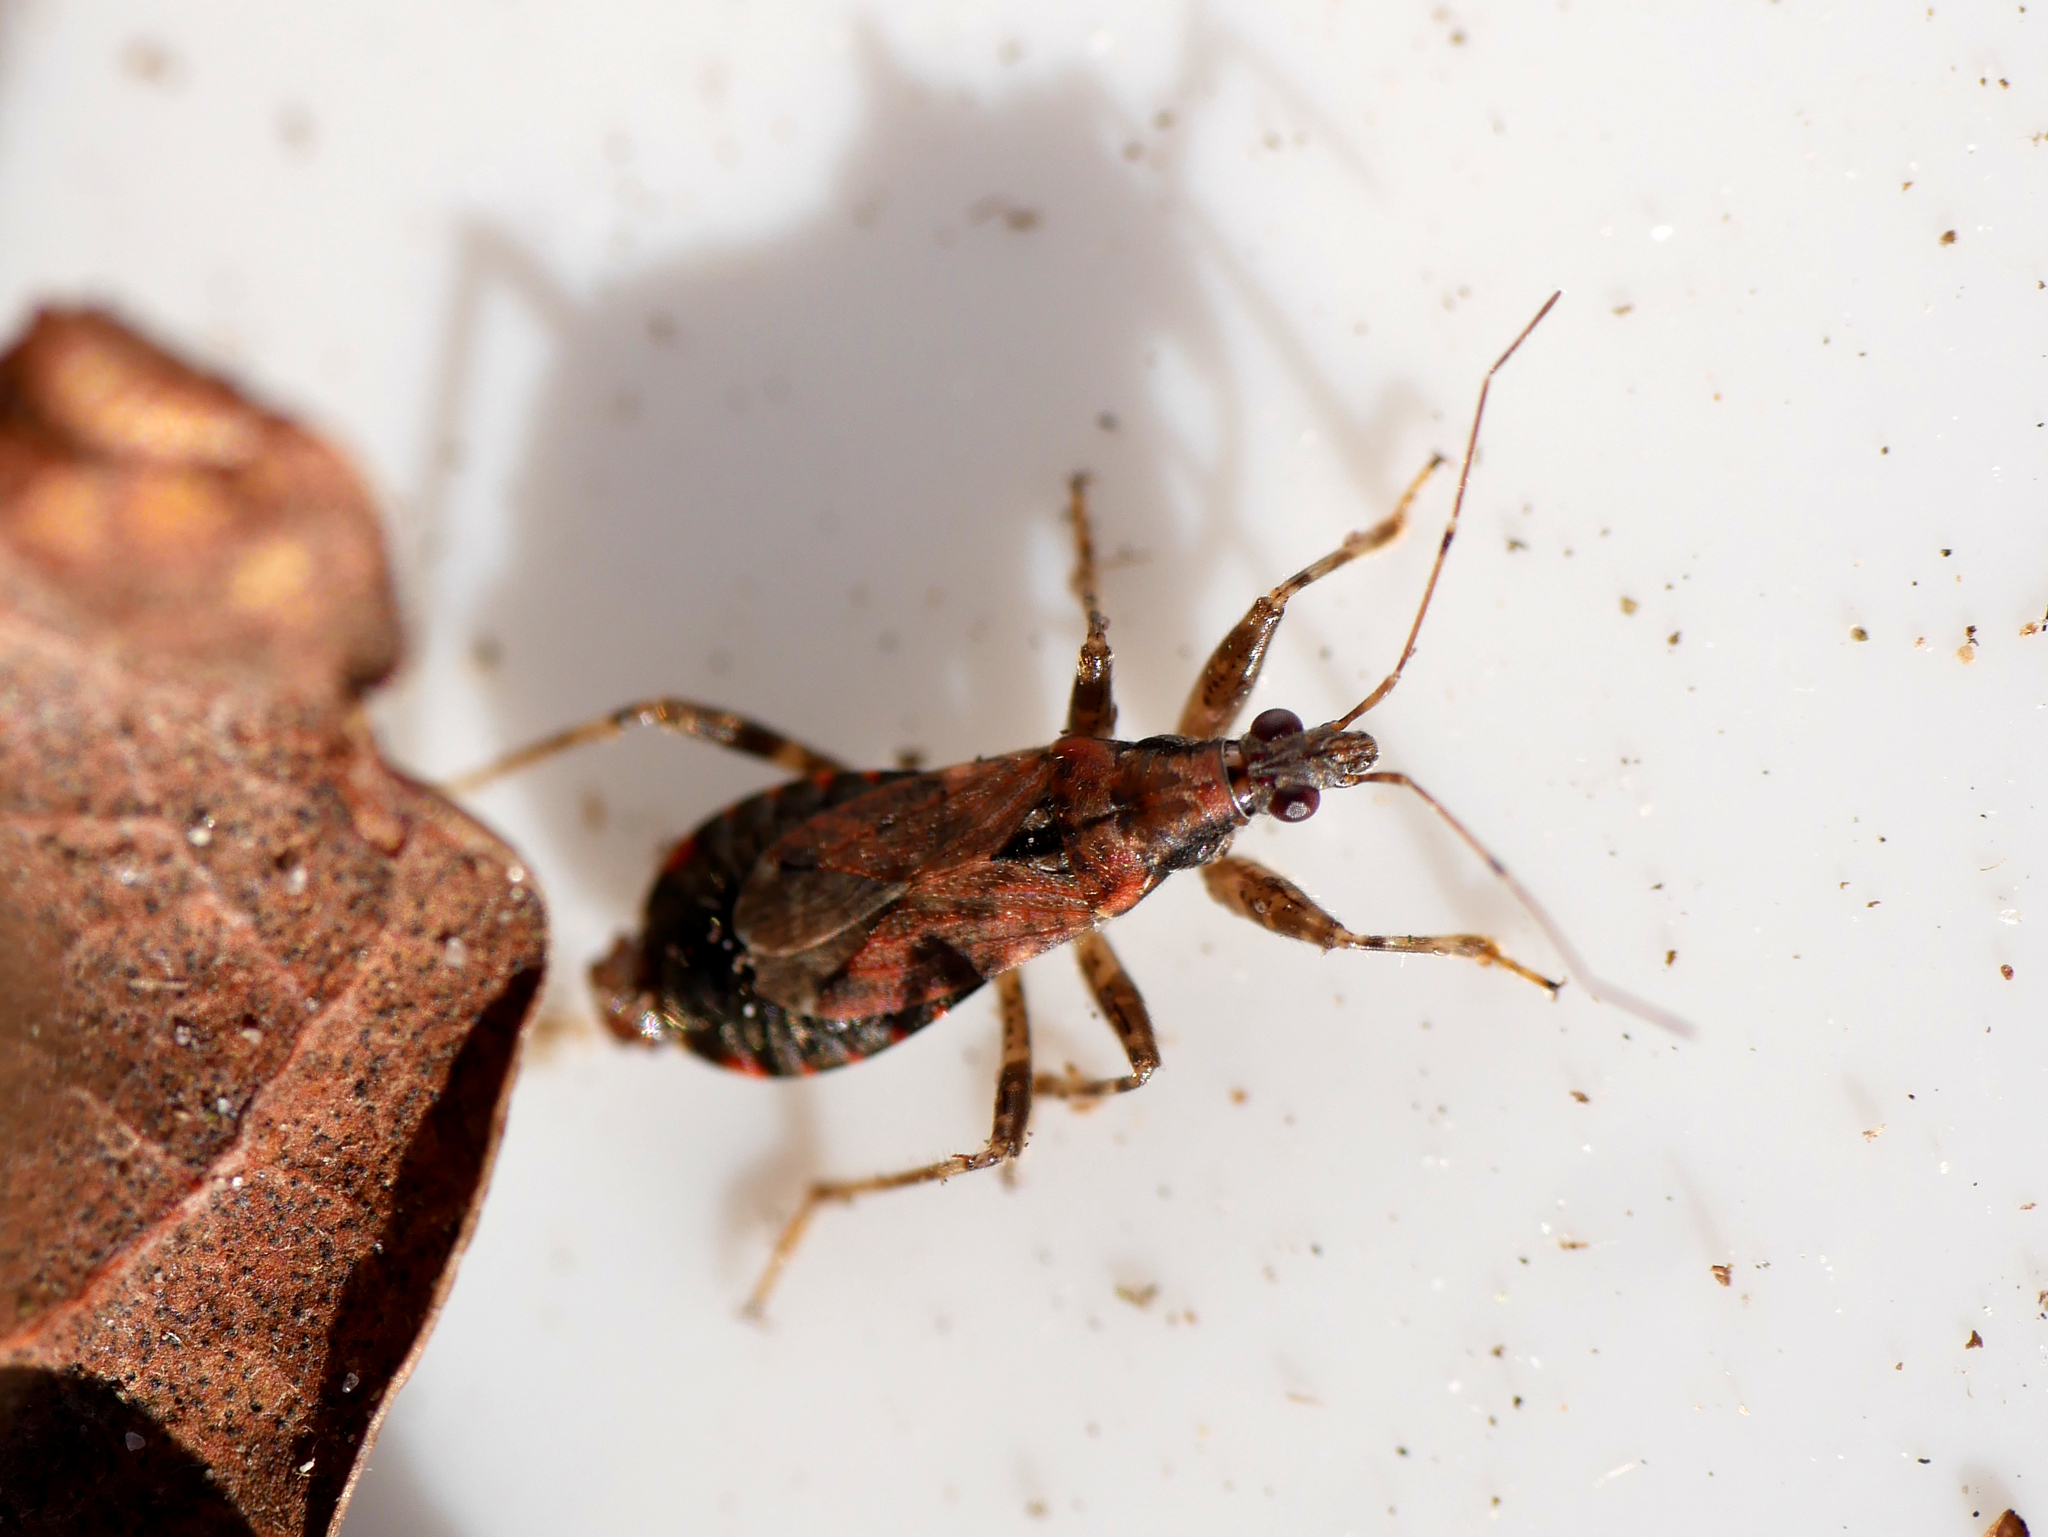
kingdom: Animalia
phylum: Arthropoda
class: Insecta
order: Hemiptera
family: Nabidae
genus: Himacerus
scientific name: Himacerus mirmicoides
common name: Ant damsel bug
